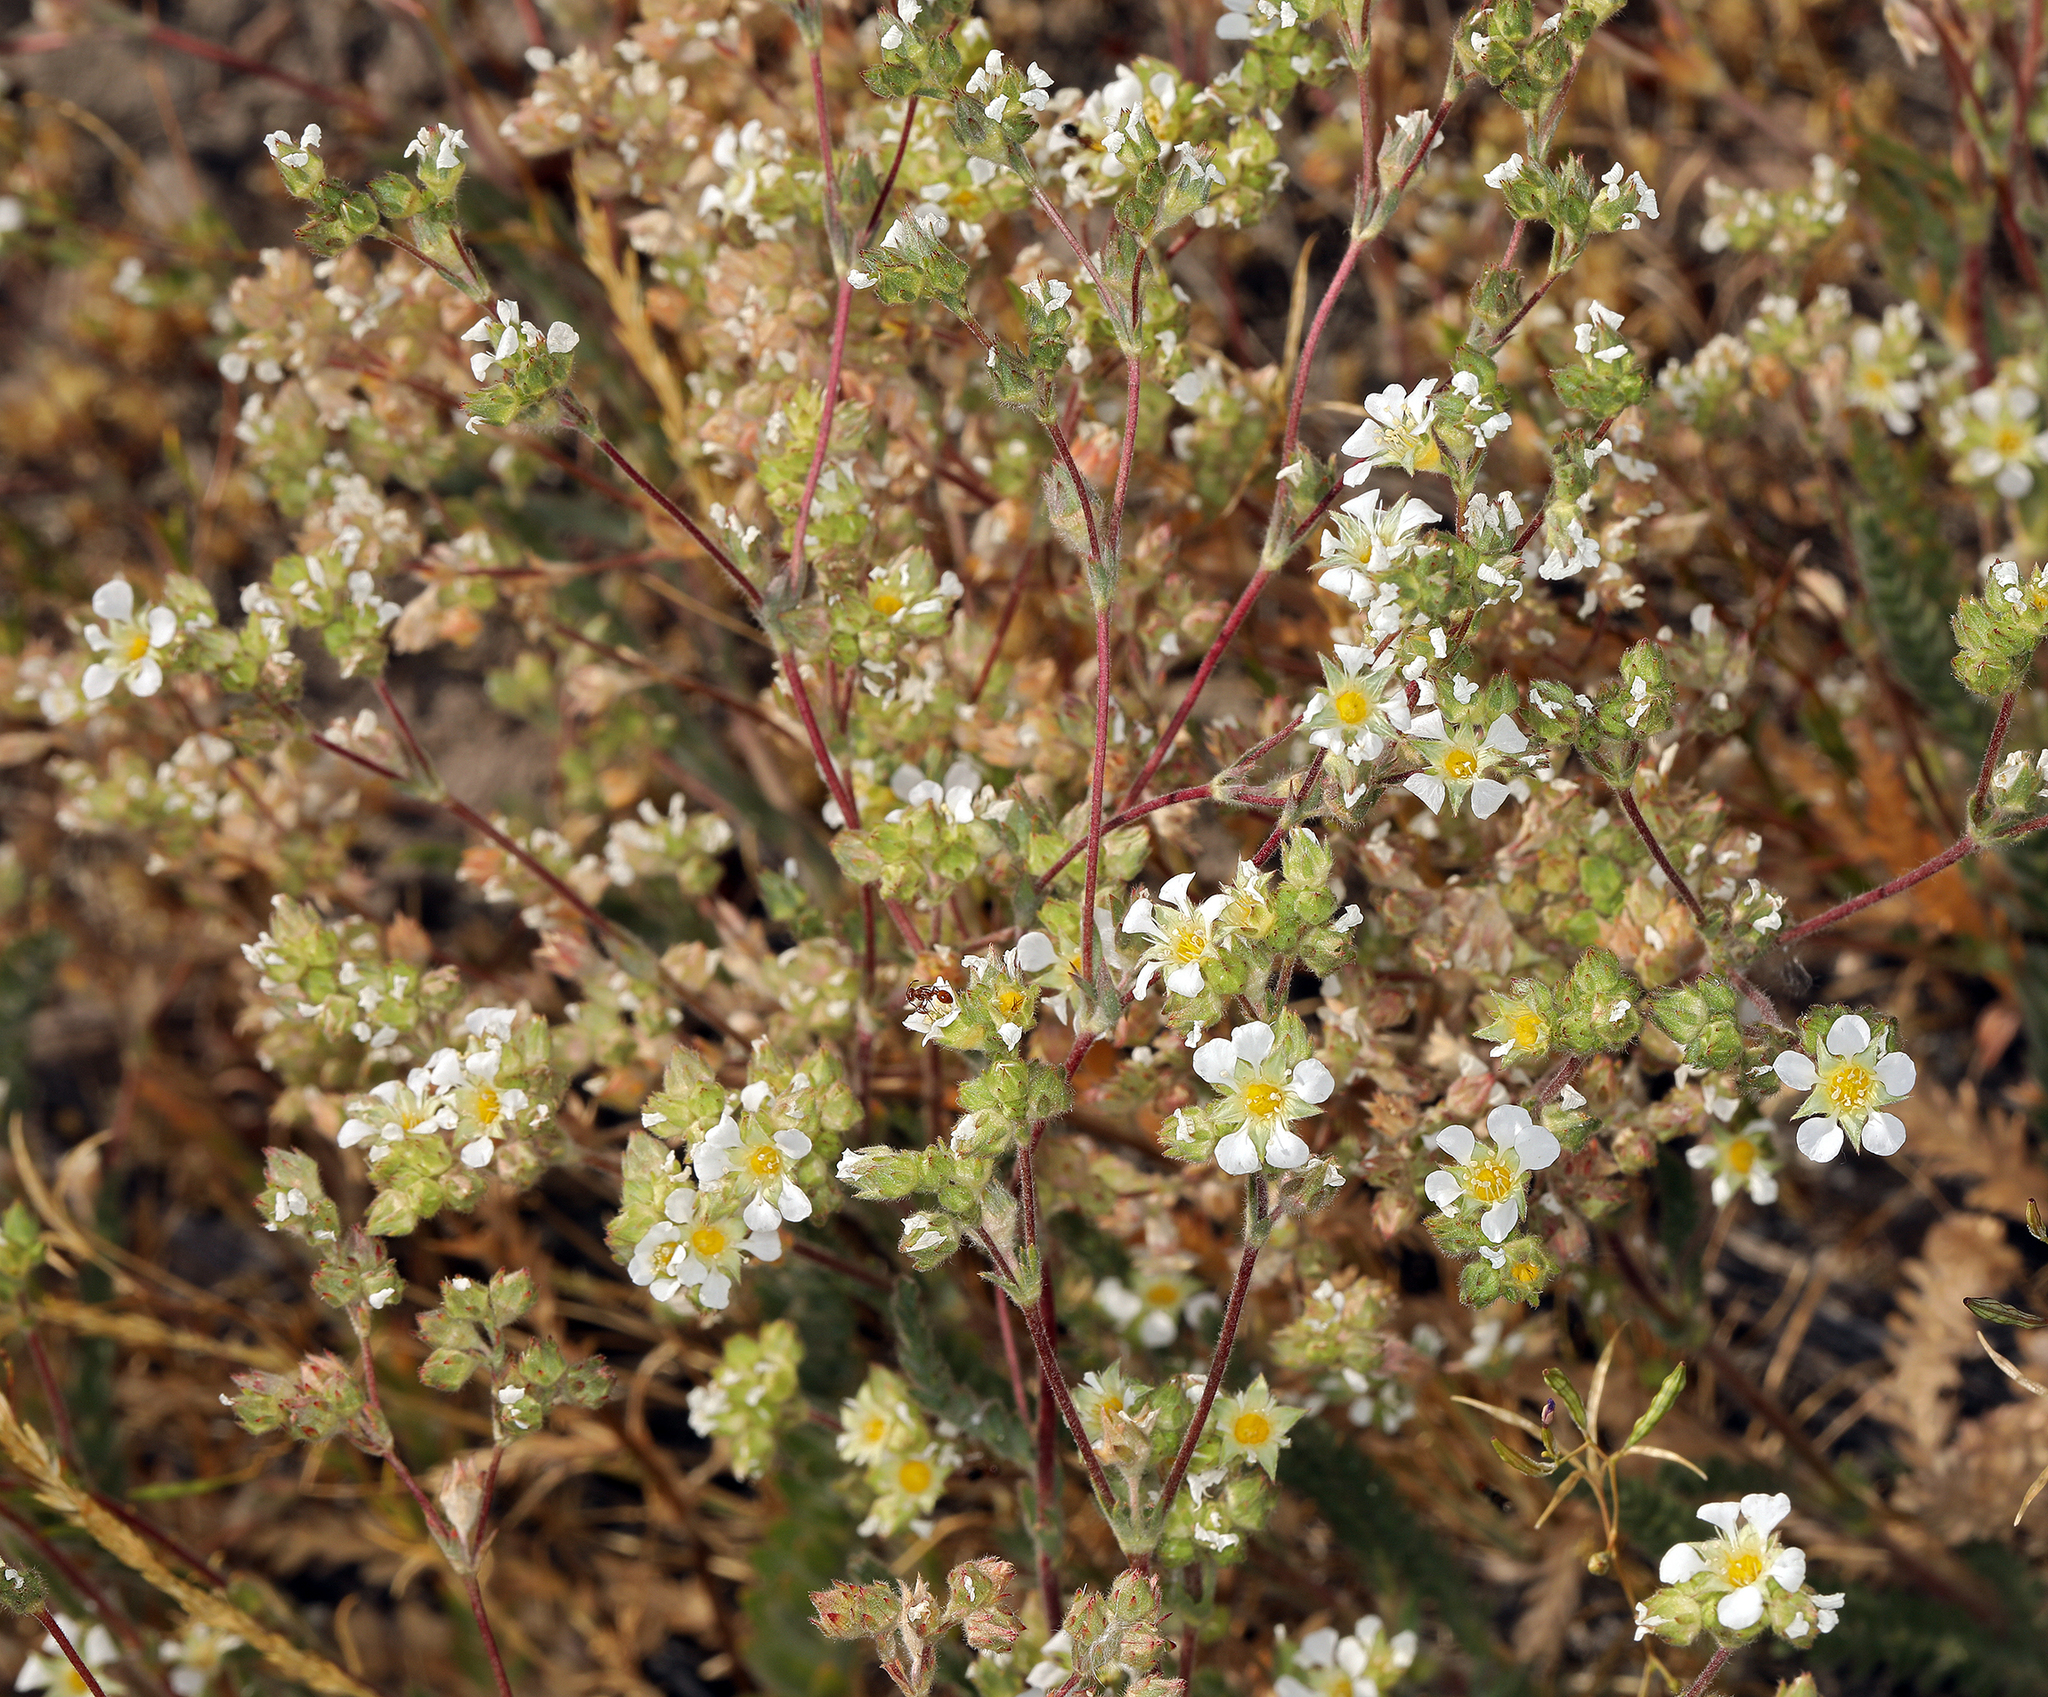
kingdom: Plantae
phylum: Tracheophyta
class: Magnoliopsida
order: Rosales
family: Rosaceae
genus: Potentilla
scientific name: Potentilla sericoleuca
